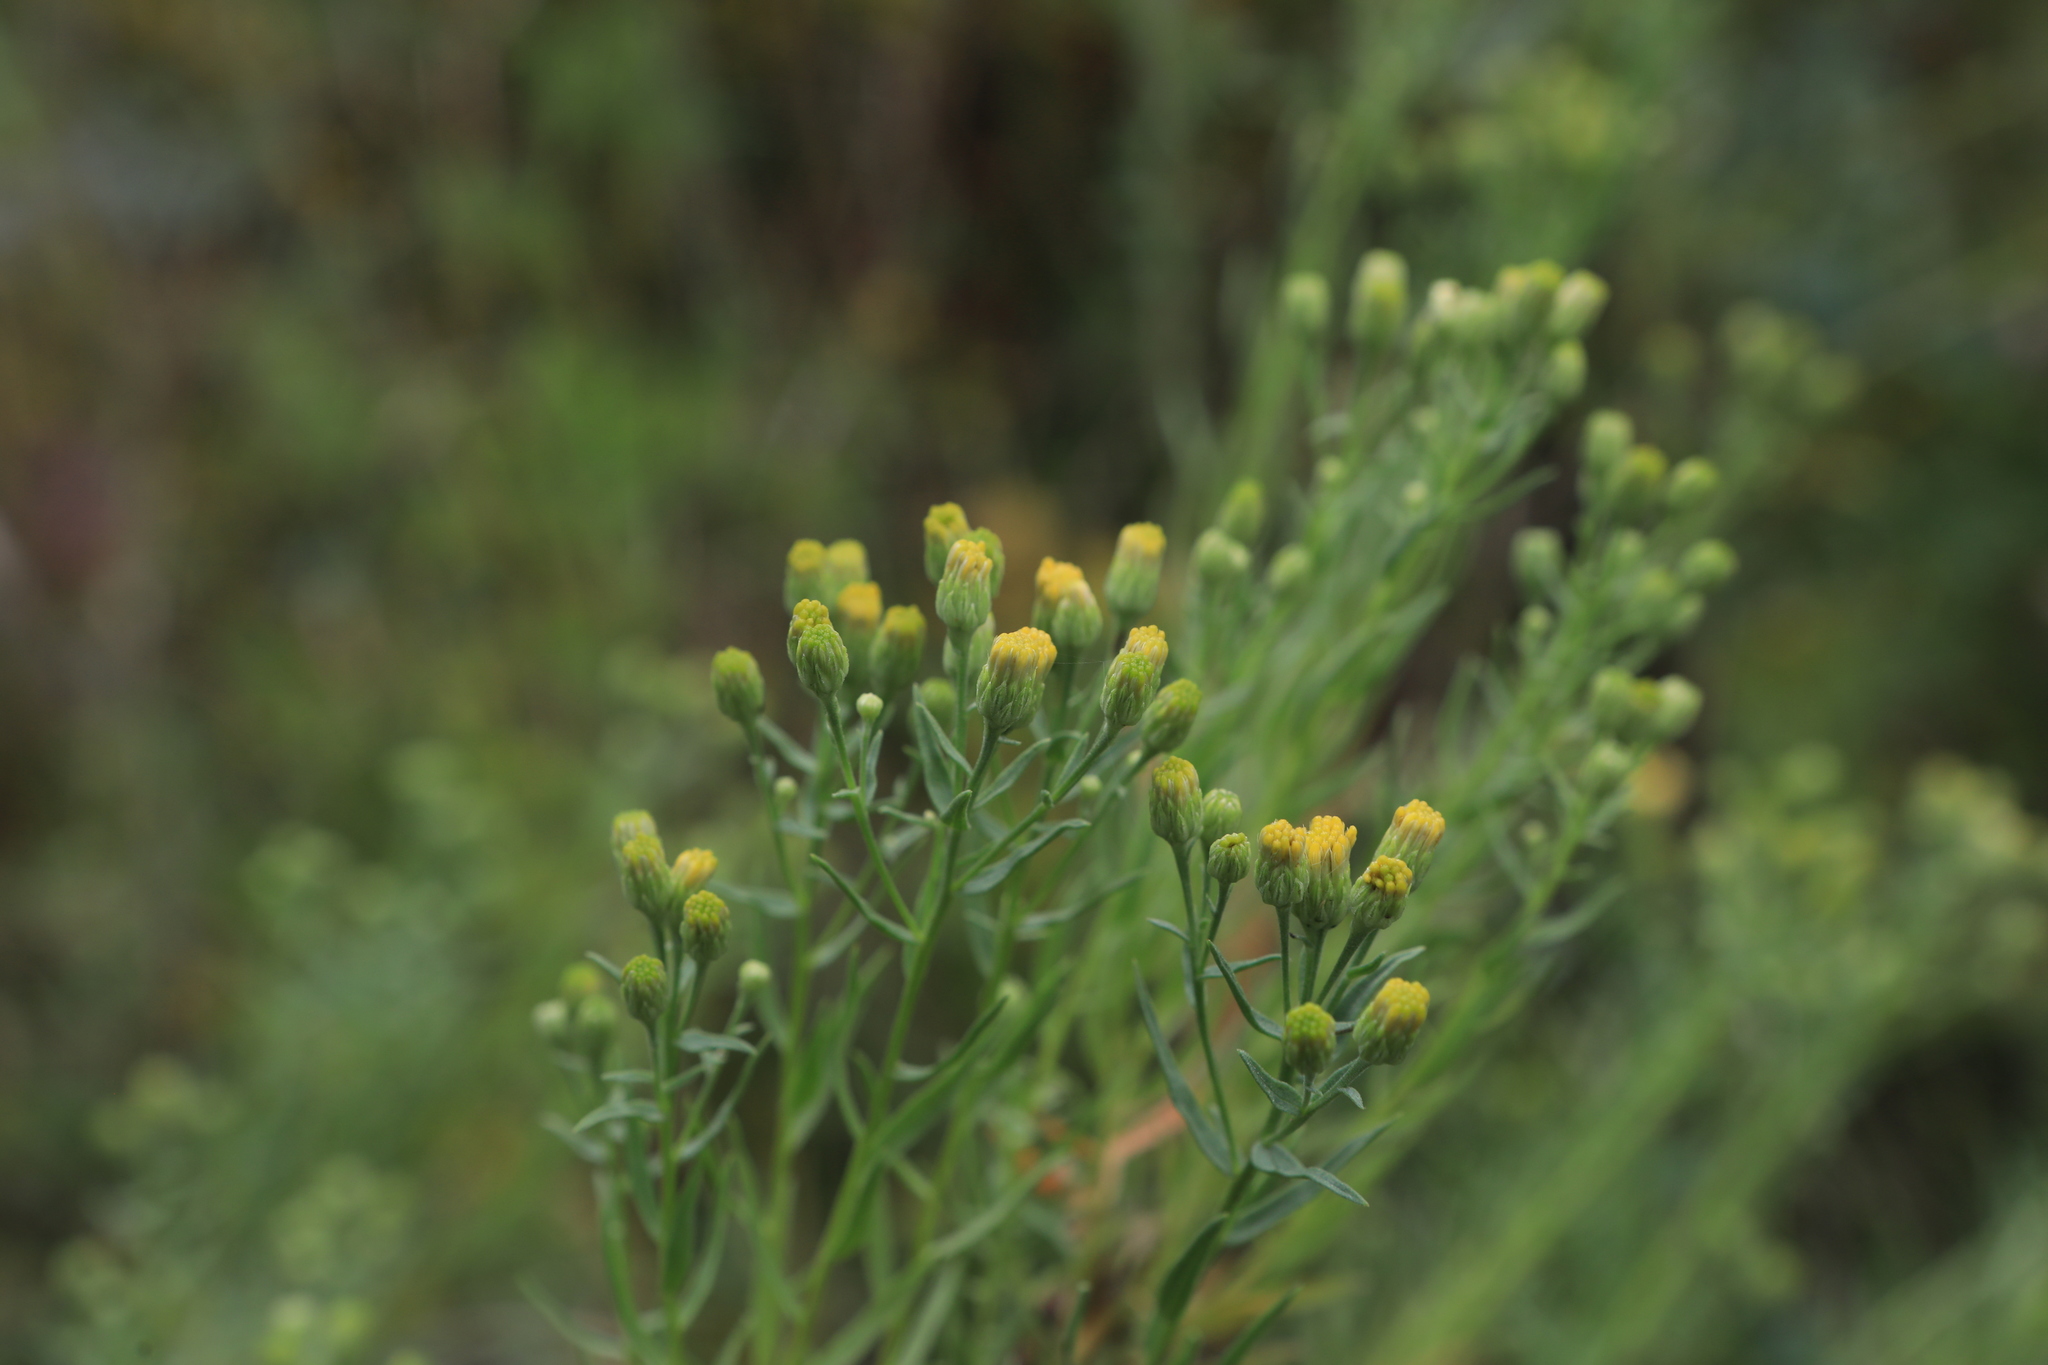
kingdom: Plantae
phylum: Tracheophyta
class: Magnoliopsida
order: Asterales
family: Asteraceae
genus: Galatella
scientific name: Galatella biflora
